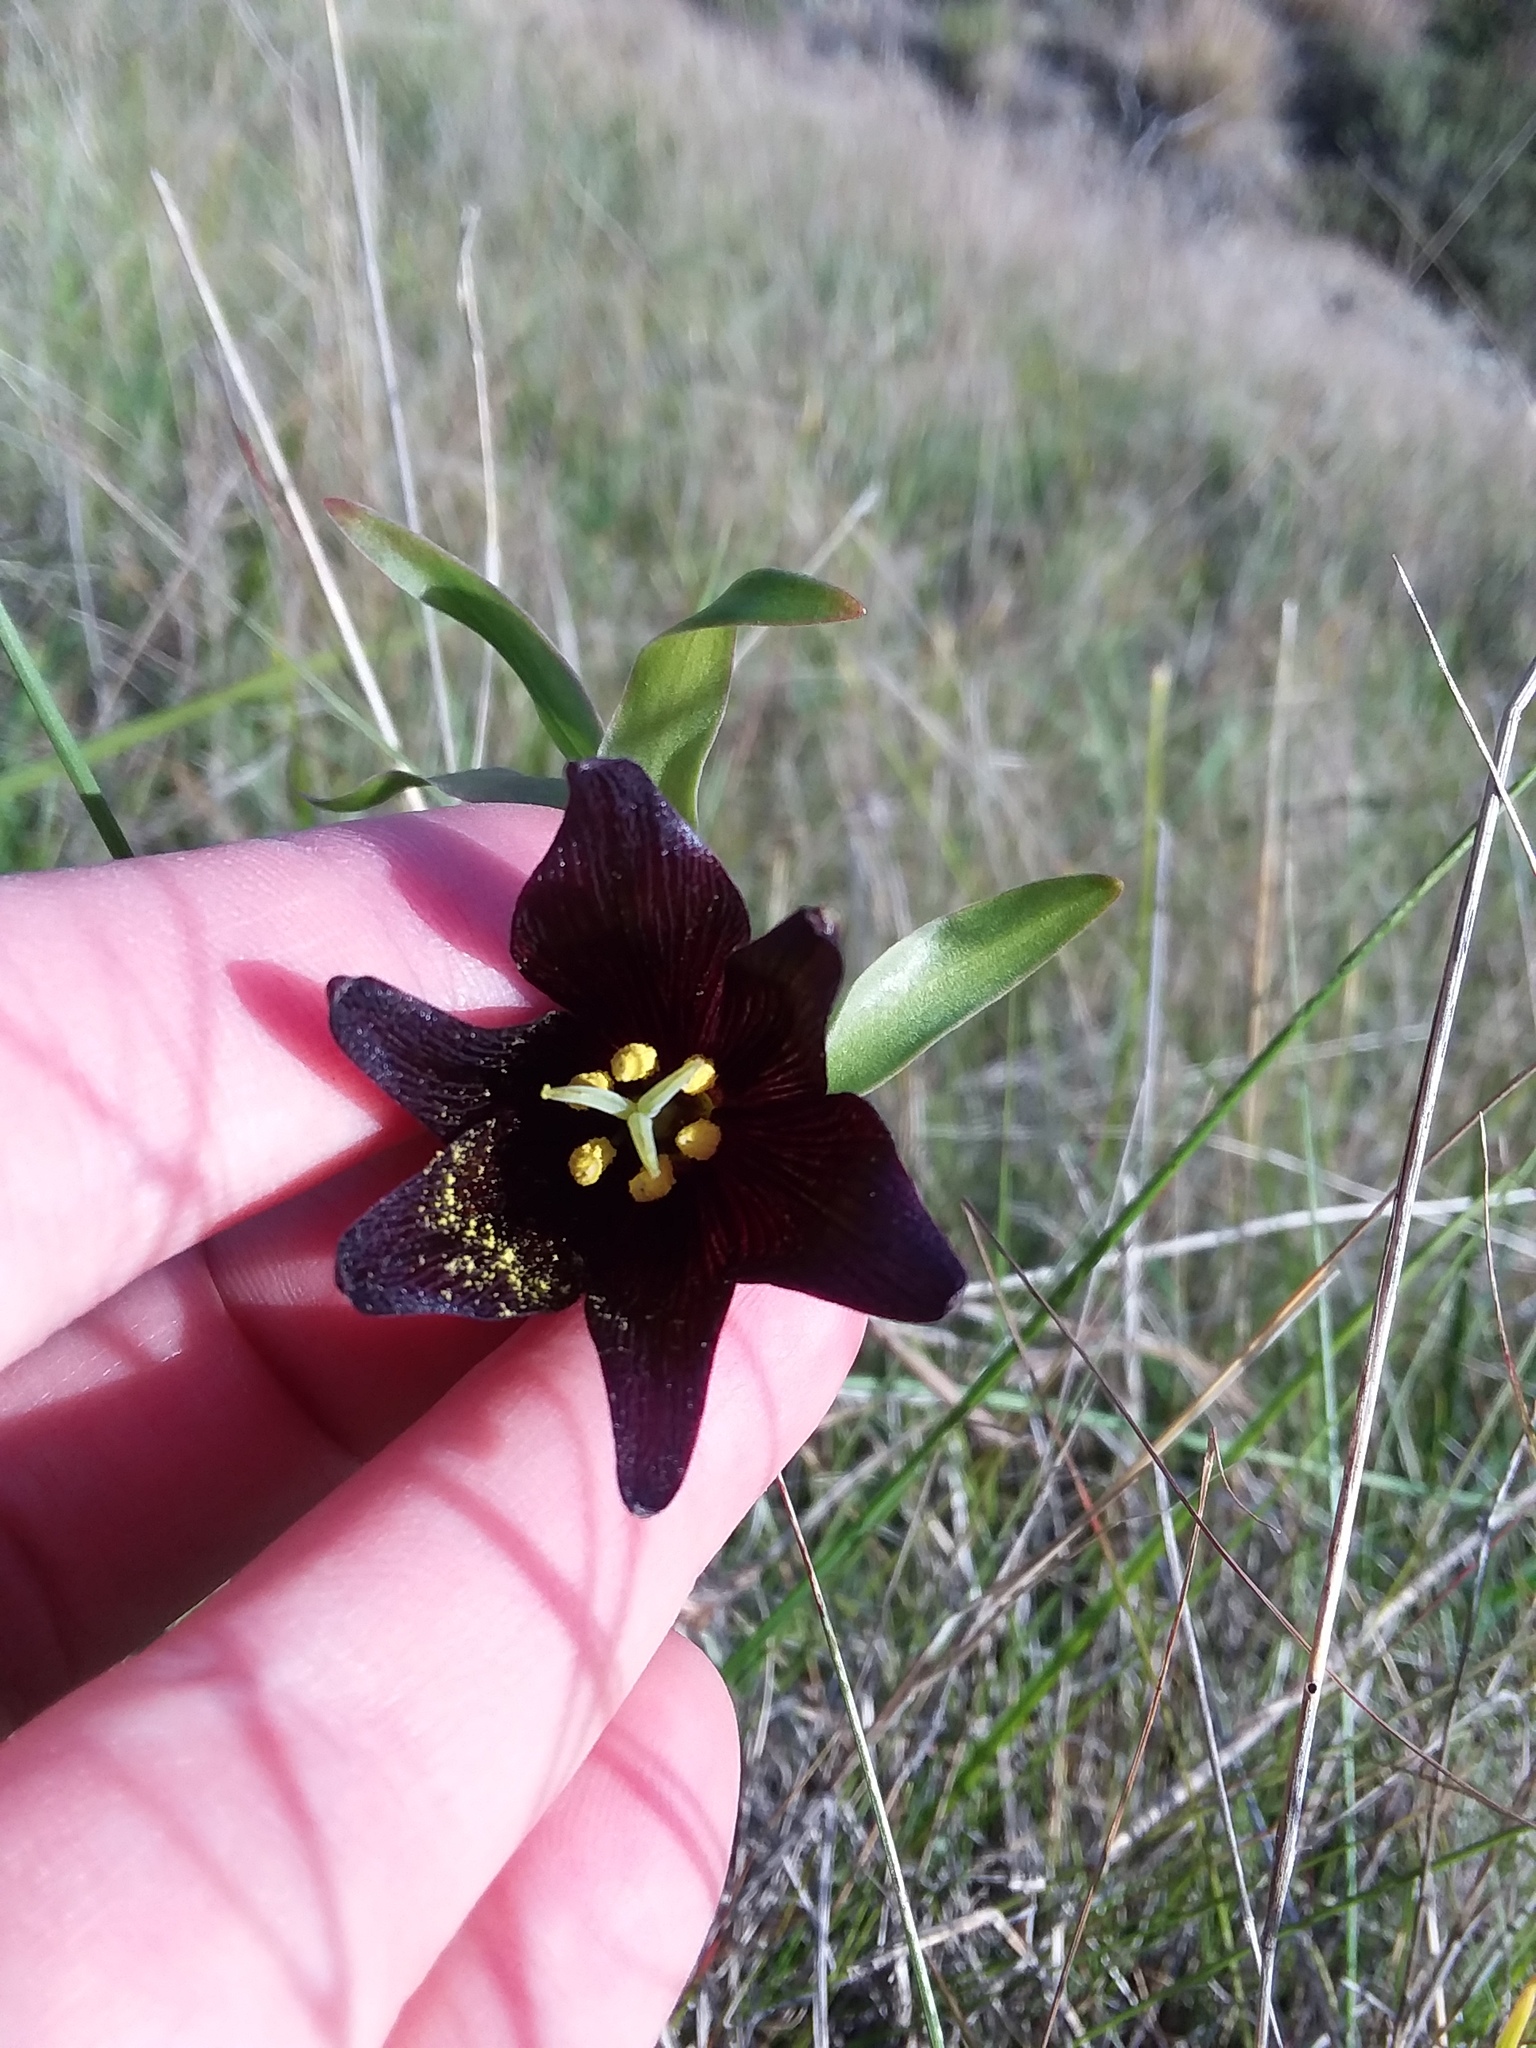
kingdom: Plantae
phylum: Tracheophyta
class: Liliopsida
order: Liliales
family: Liliaceae
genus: Fritillaria
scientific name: Fritillaria biflora
